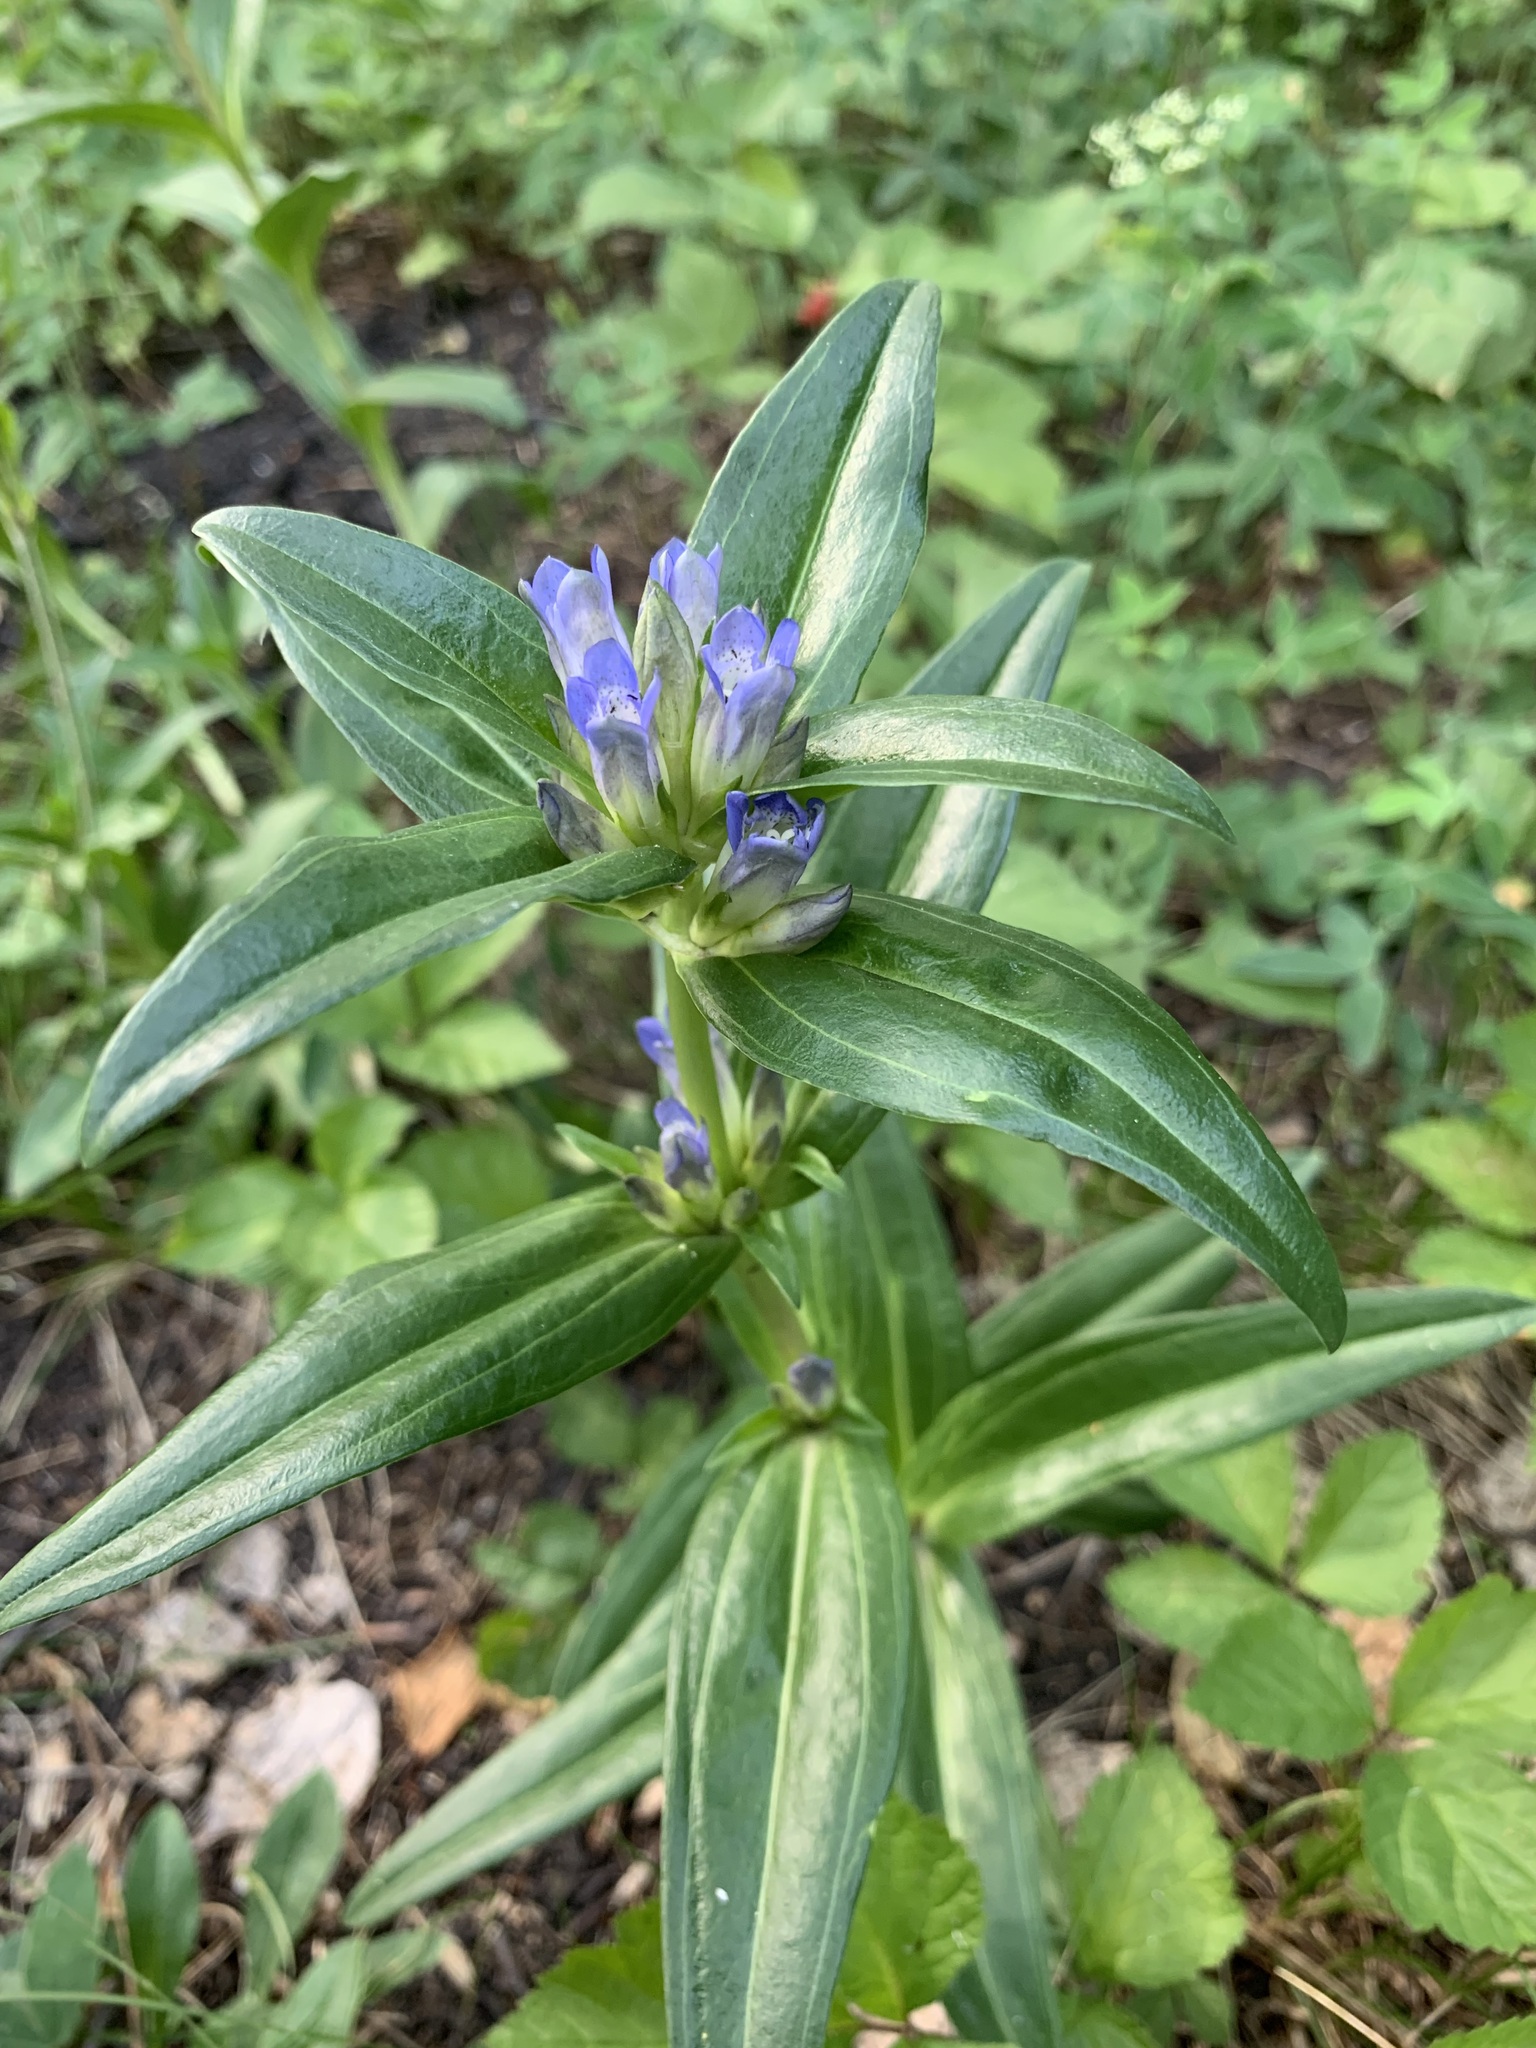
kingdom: Plantae
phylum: Tracheophyta
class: Magnoliopsida
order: Gentianales
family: Gentianaceae
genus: Gentiana
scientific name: Gentiana cruciata
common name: Cross gentian
